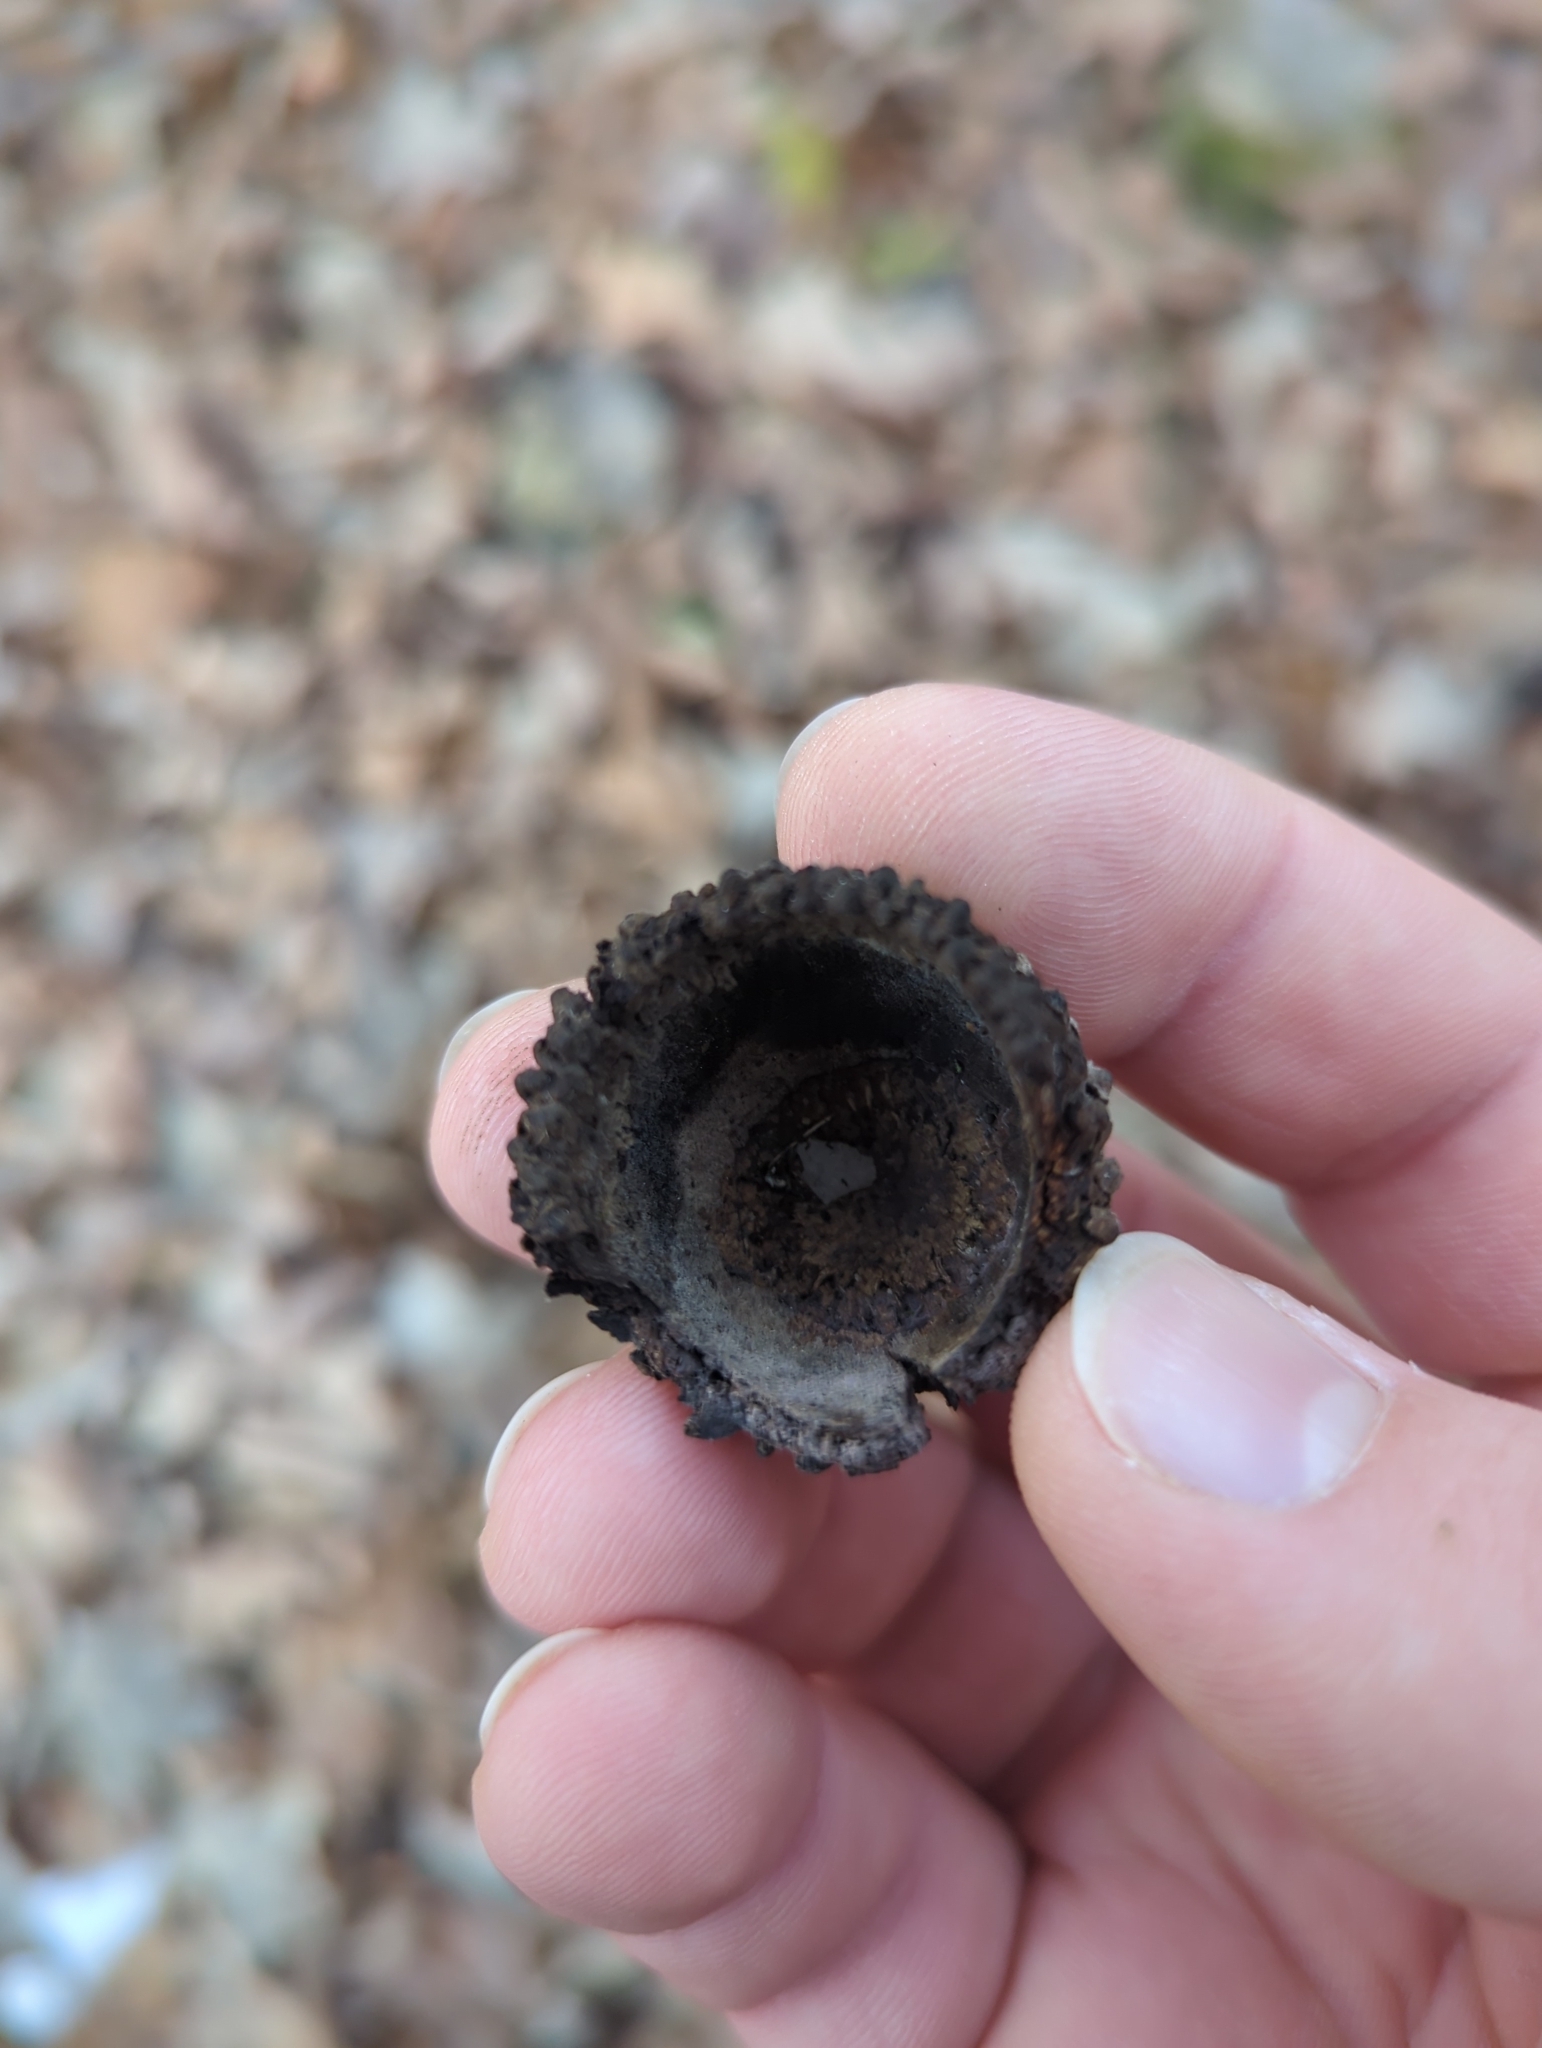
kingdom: Plantae
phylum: Tracheophyta
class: Magnoliopsida
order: Fagales
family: Fagaceae
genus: Quercus
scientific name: Quercus macrocarpa
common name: Bur oak
